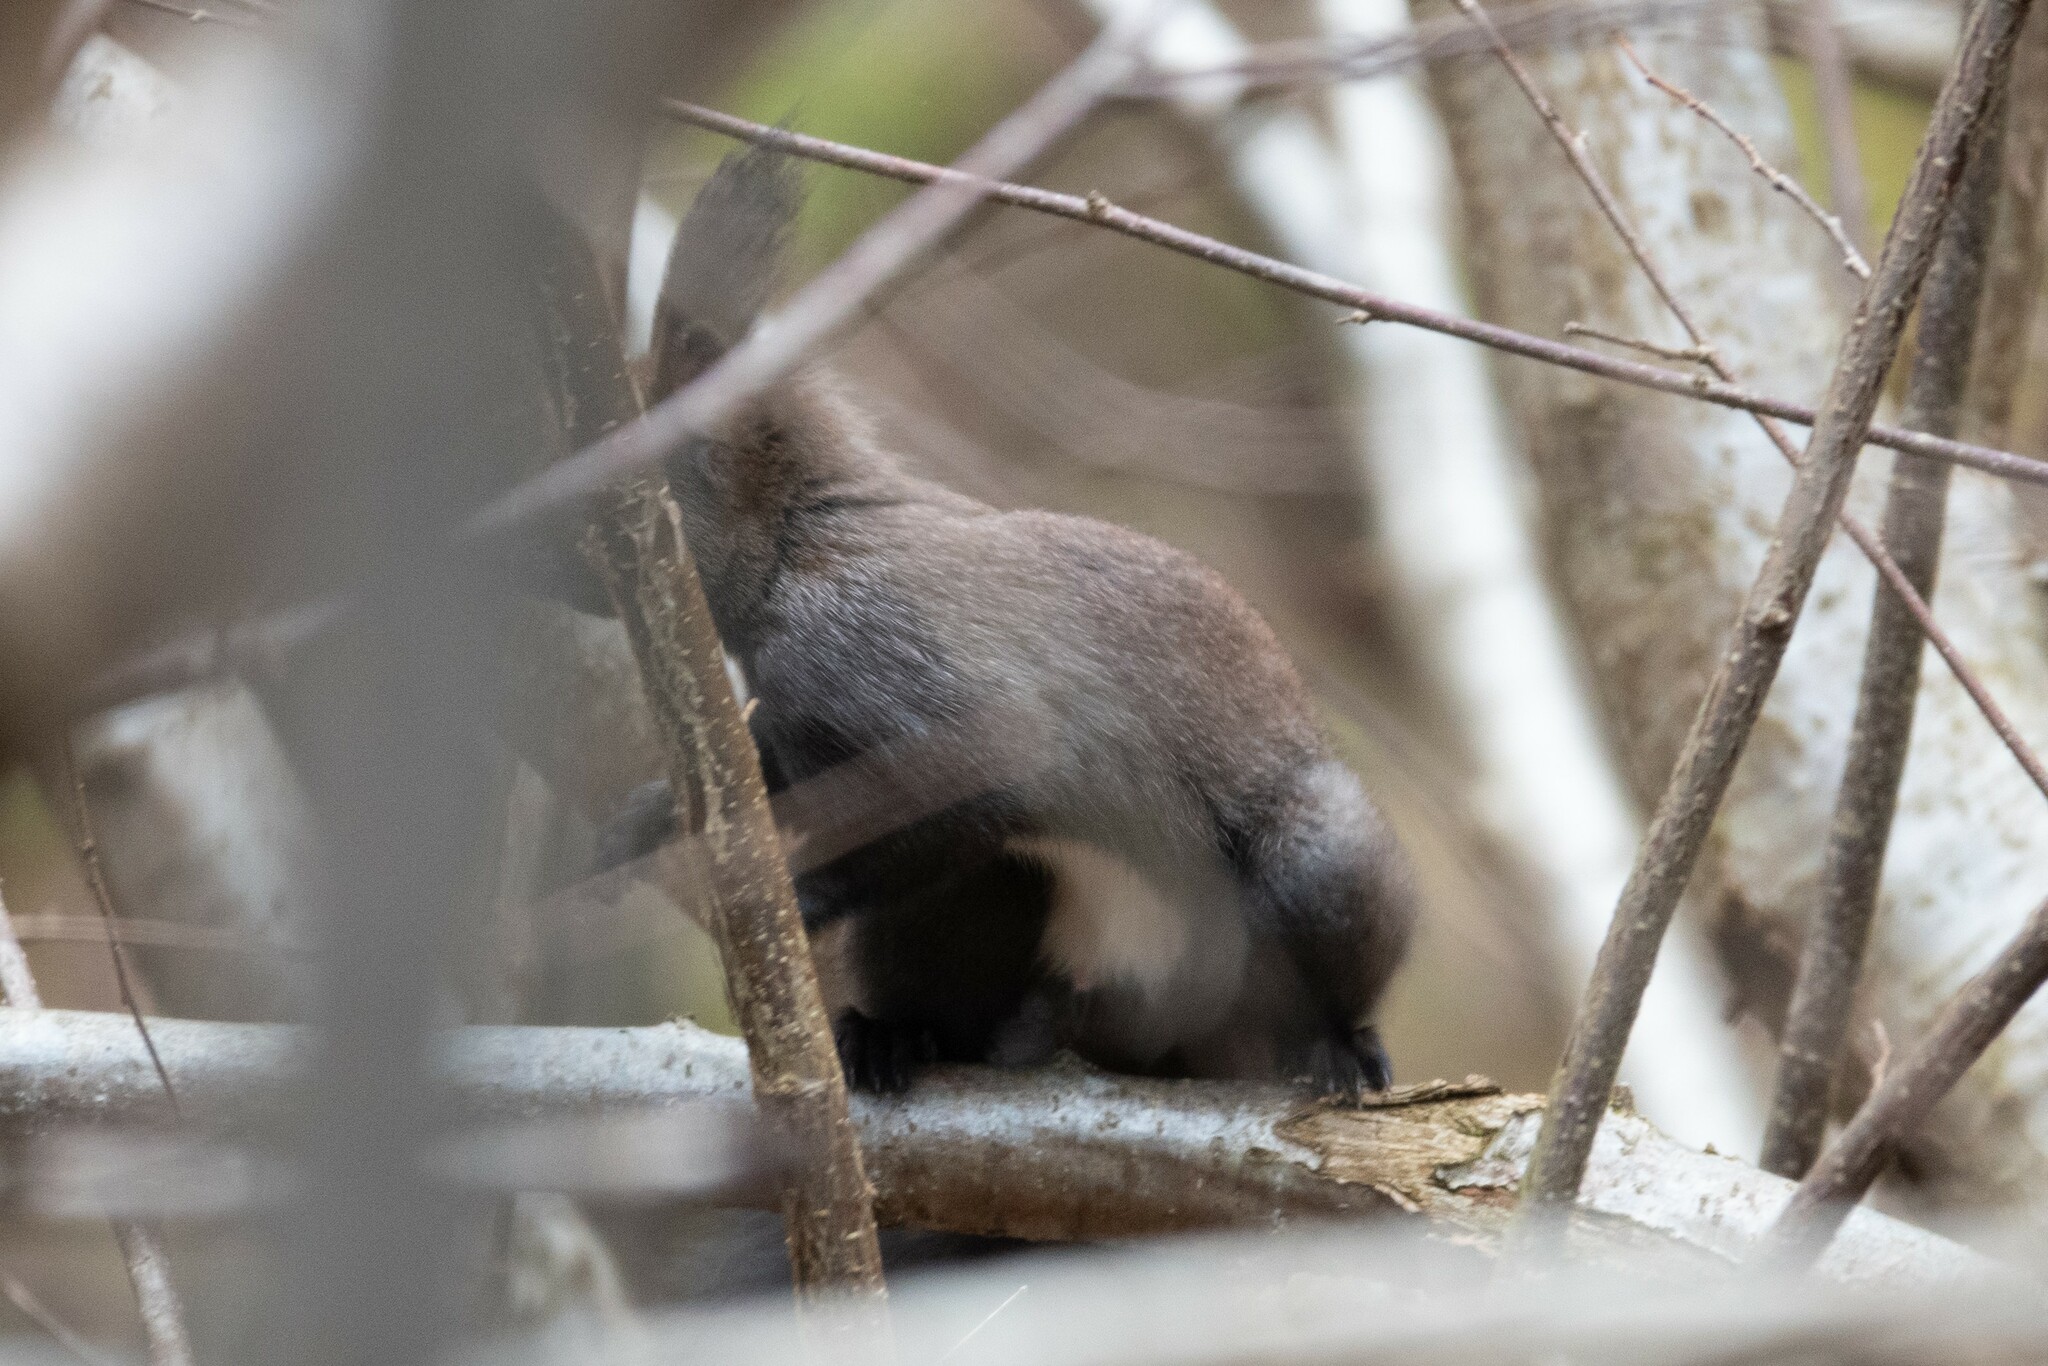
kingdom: Animalia
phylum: Chordata
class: Mammalia
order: Rodentia
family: Sciuridae
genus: Sciurus
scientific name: Sciurus vulgaris
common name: Eurasian red squirrel
